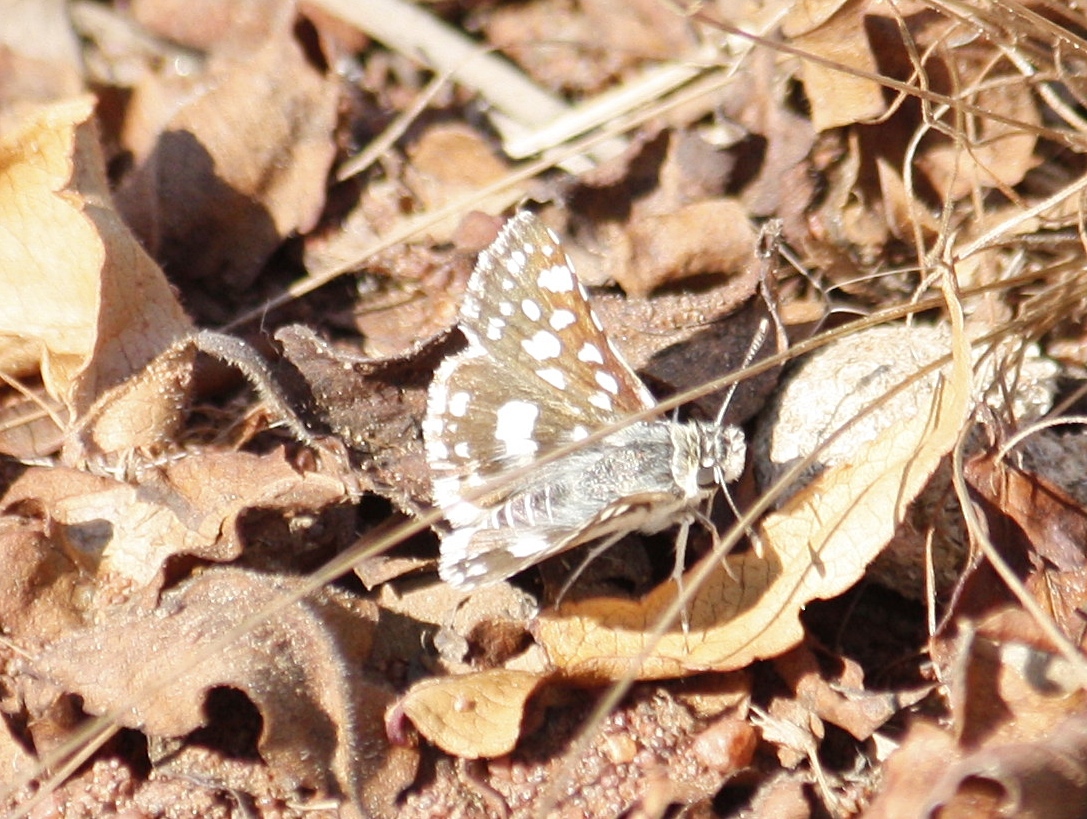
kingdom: Animalia
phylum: Arthropoda
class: Insecta
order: Lepidoptera
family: Hesperiidae
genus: Spialia
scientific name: Spialia spio
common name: Mountain sandman
